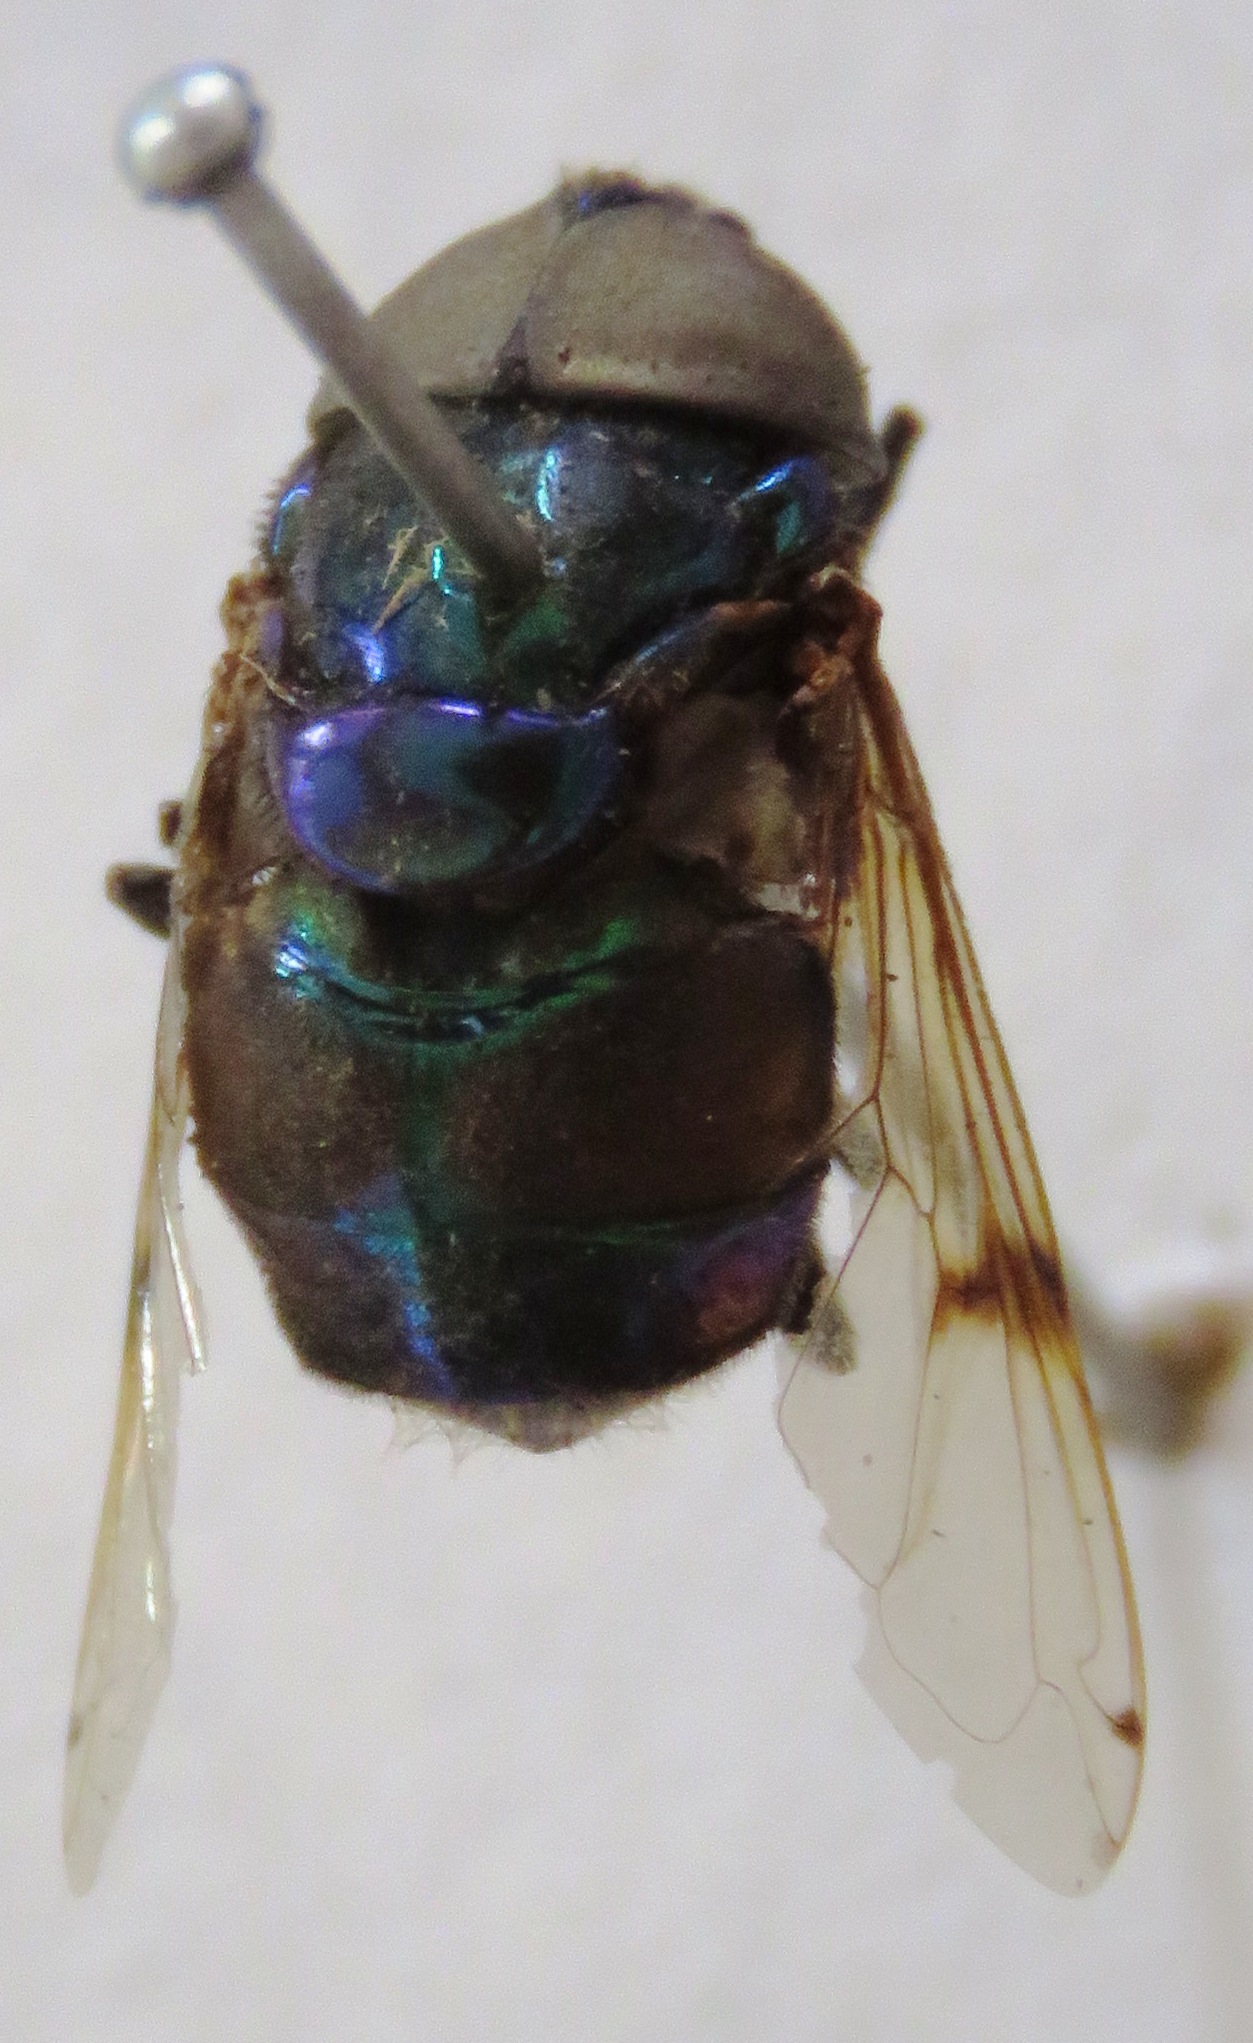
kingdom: Animalia
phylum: Arthropoda
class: Insecta
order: Diptera
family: Syrphidae
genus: Ornidia
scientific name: Ornidia obesa
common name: Syrphid fly
